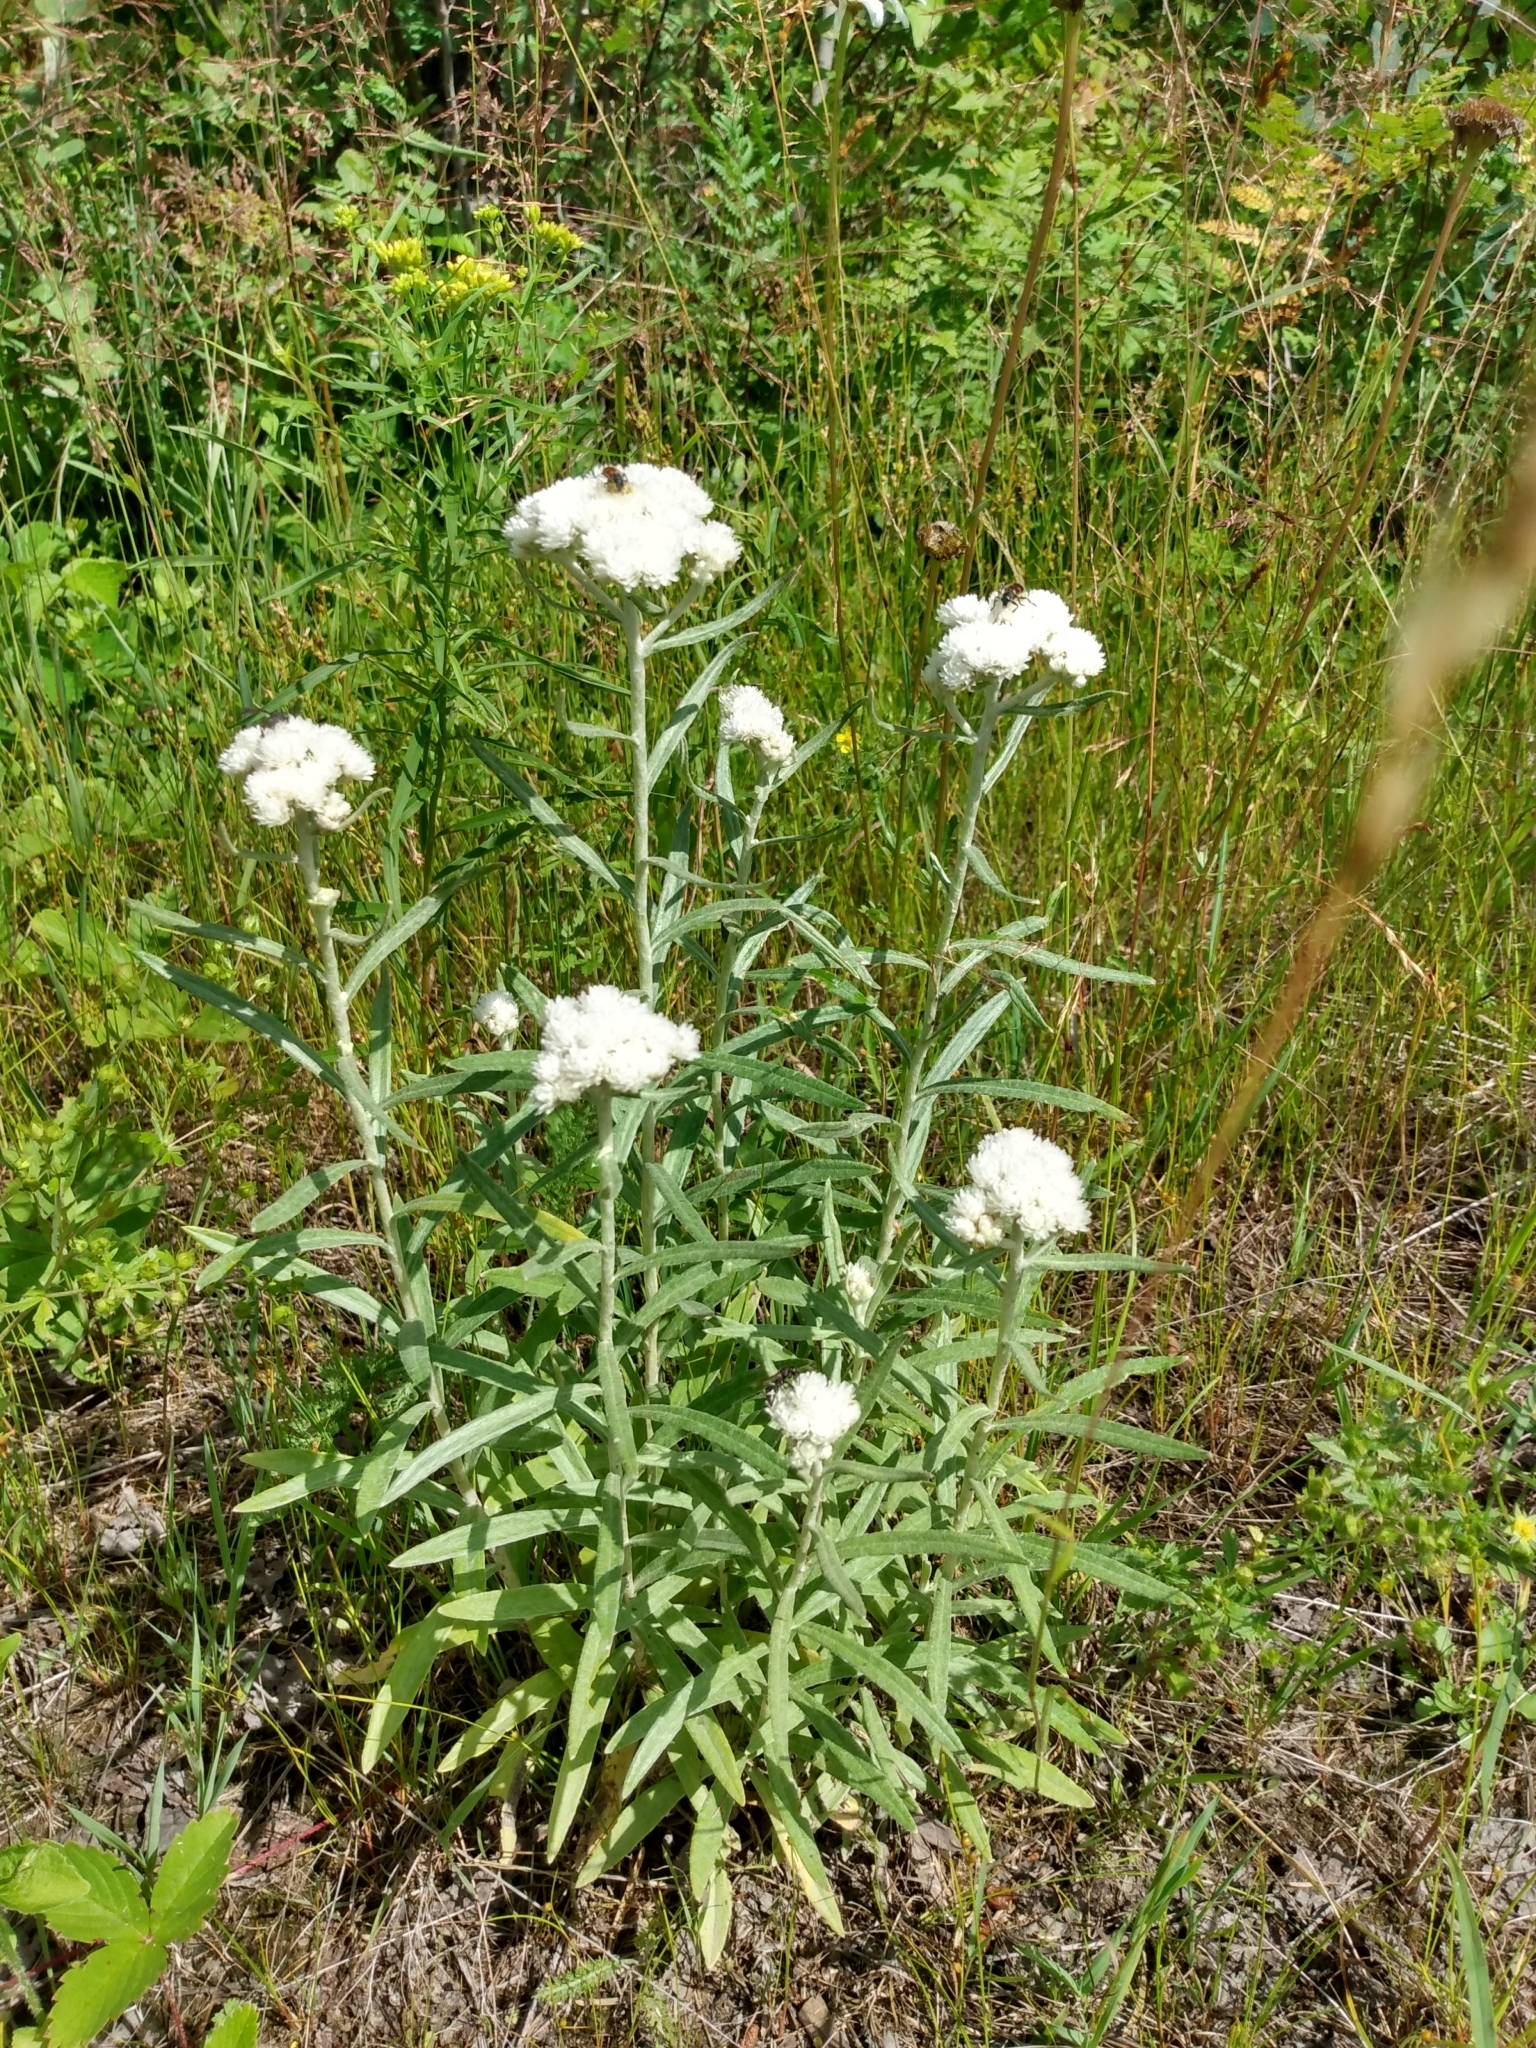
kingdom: Plantae
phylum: Tracheophyta
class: Magnoliopsida
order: Asterales
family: Asteraceae
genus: Anaphalis
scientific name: Anaphalis margaritacea
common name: Pearly everlasting
